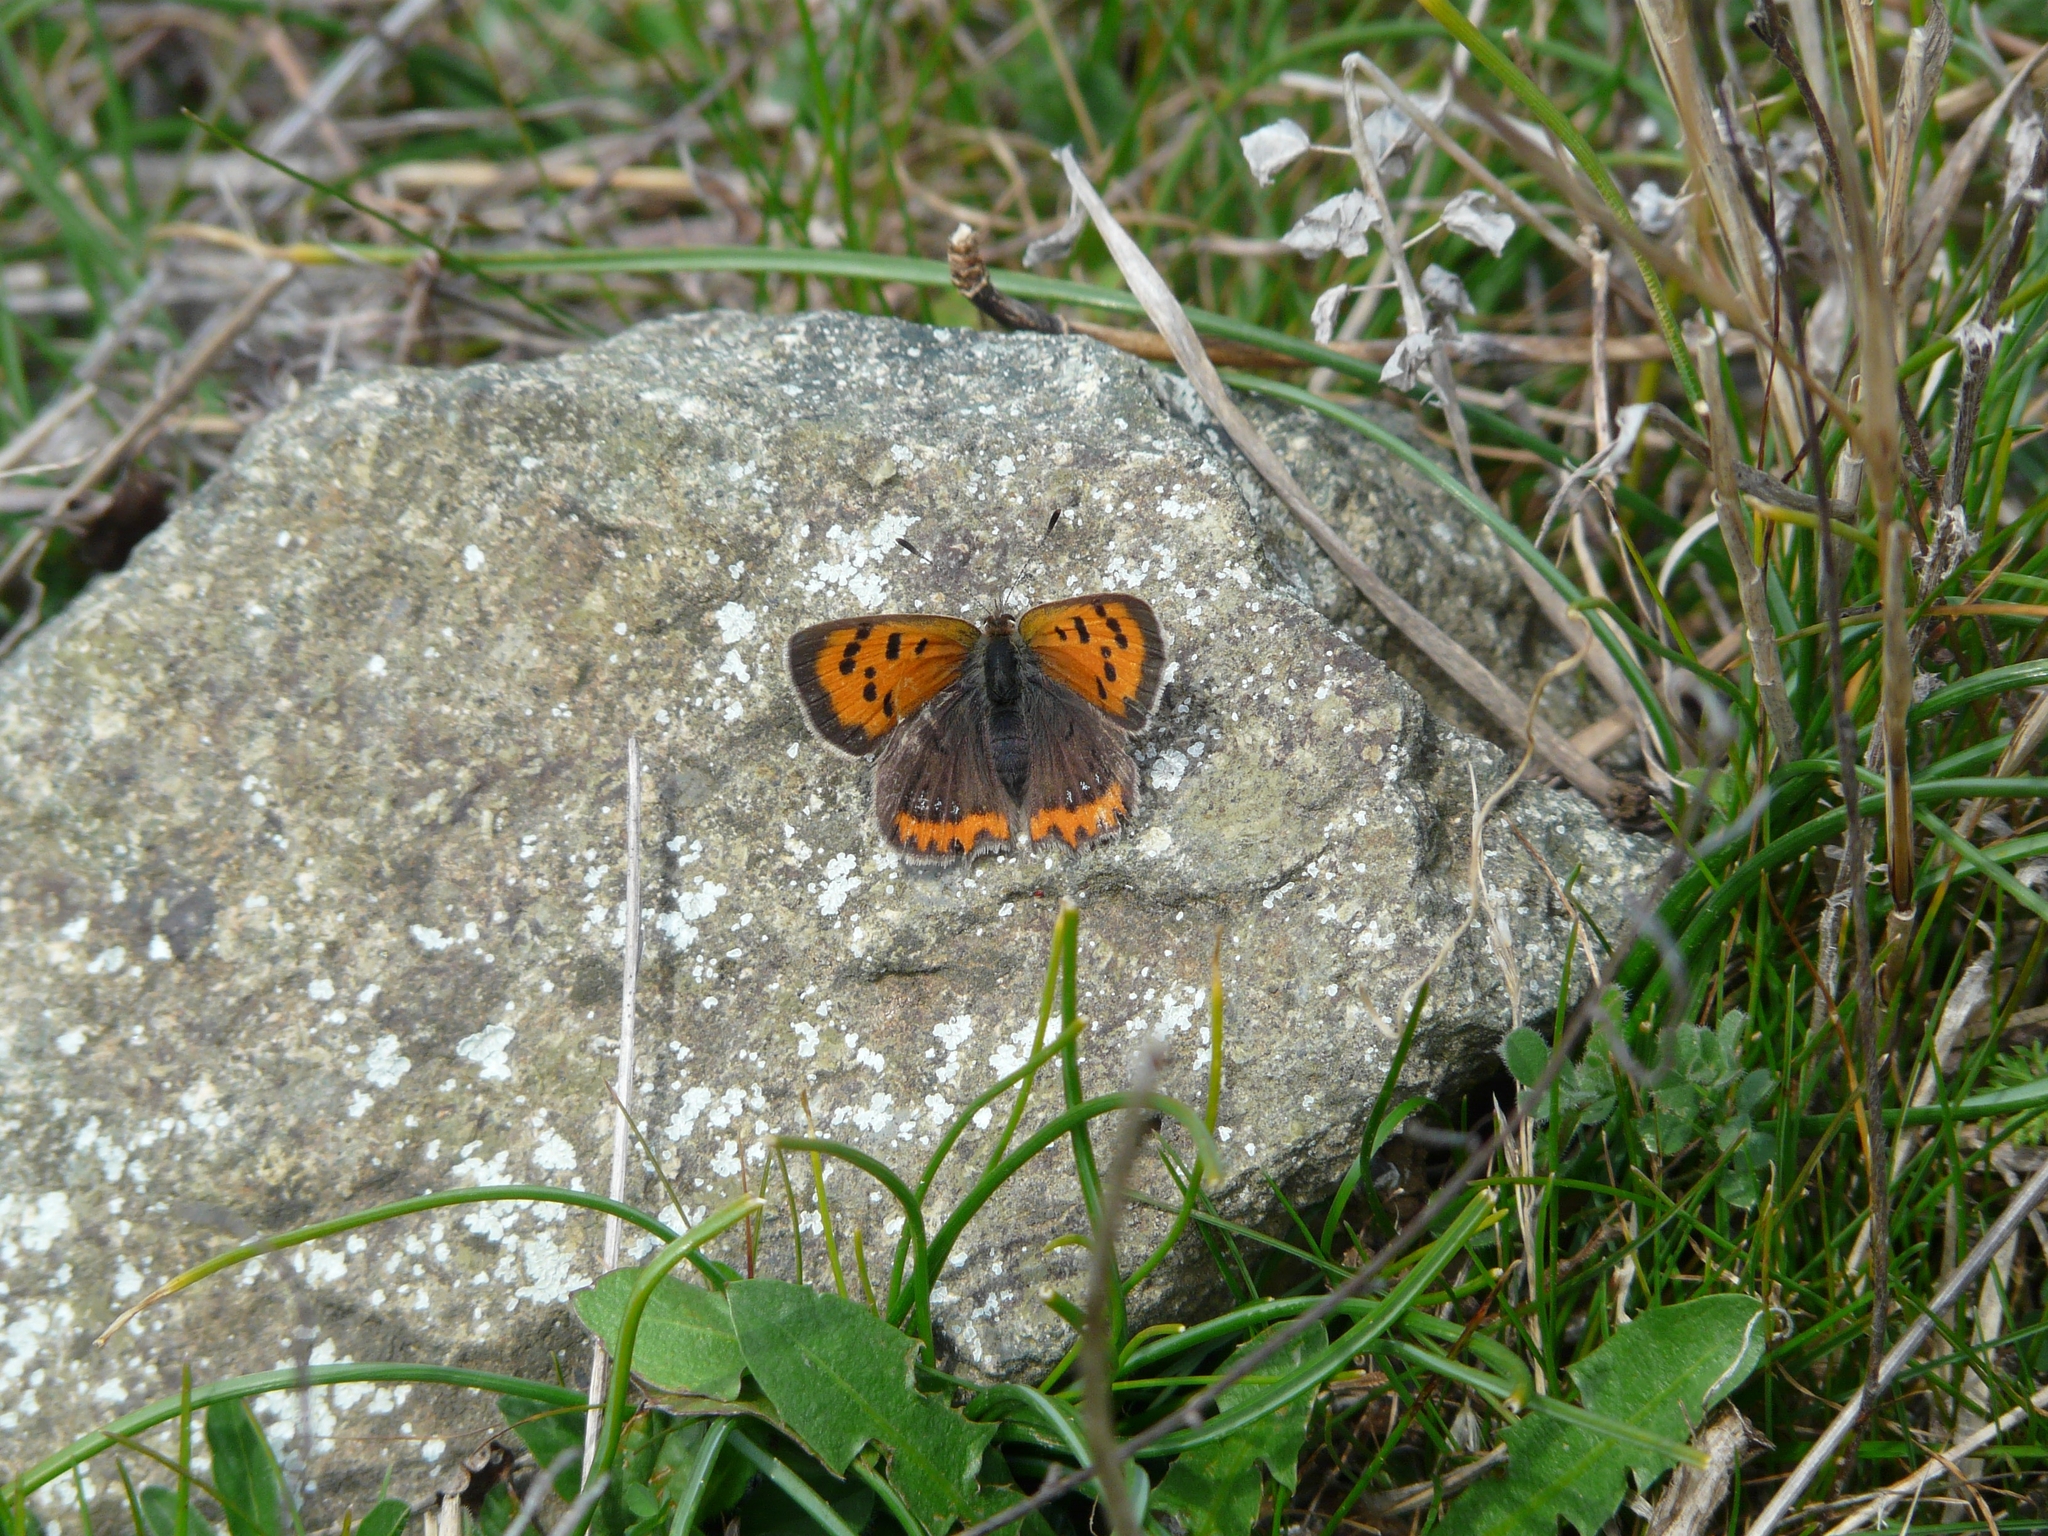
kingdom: Animalia
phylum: Arthropoda
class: Insecta
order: Lepidoptera
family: Lycaenidae
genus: Lycaena
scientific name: Lycaena phlaeas
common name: Small copper
